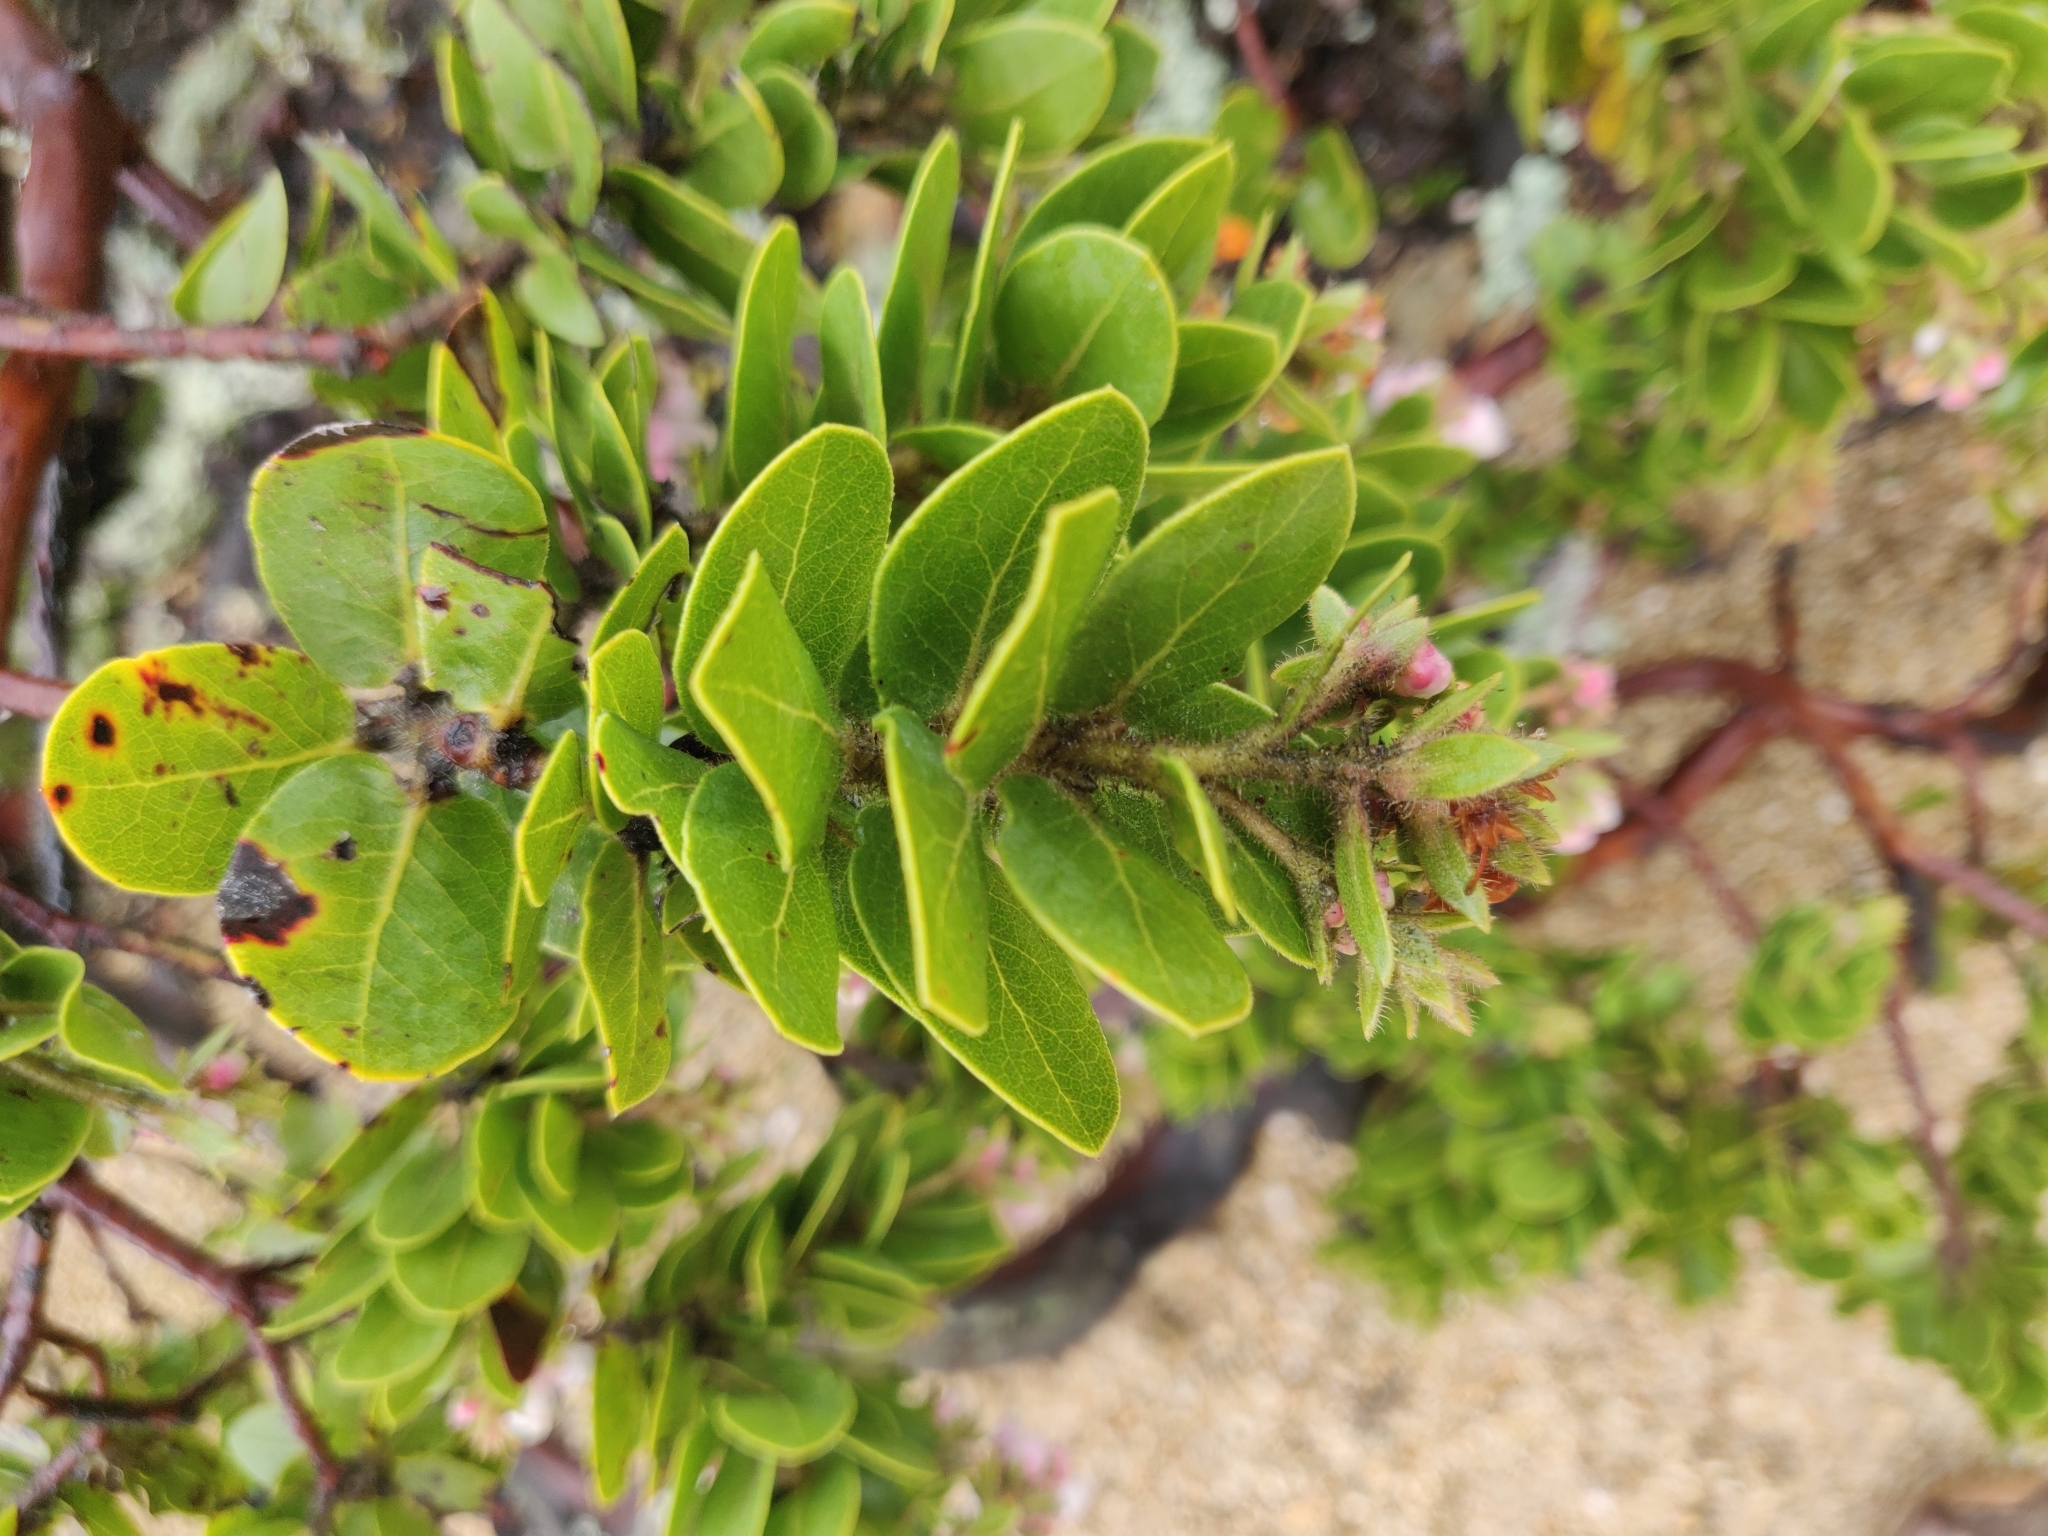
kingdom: Plantae
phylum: Tracheophyta
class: Magnoliopsida
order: Ericales
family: Ericaceae
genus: Arctostaphylos
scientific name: Arctostaphylos montaraensis
